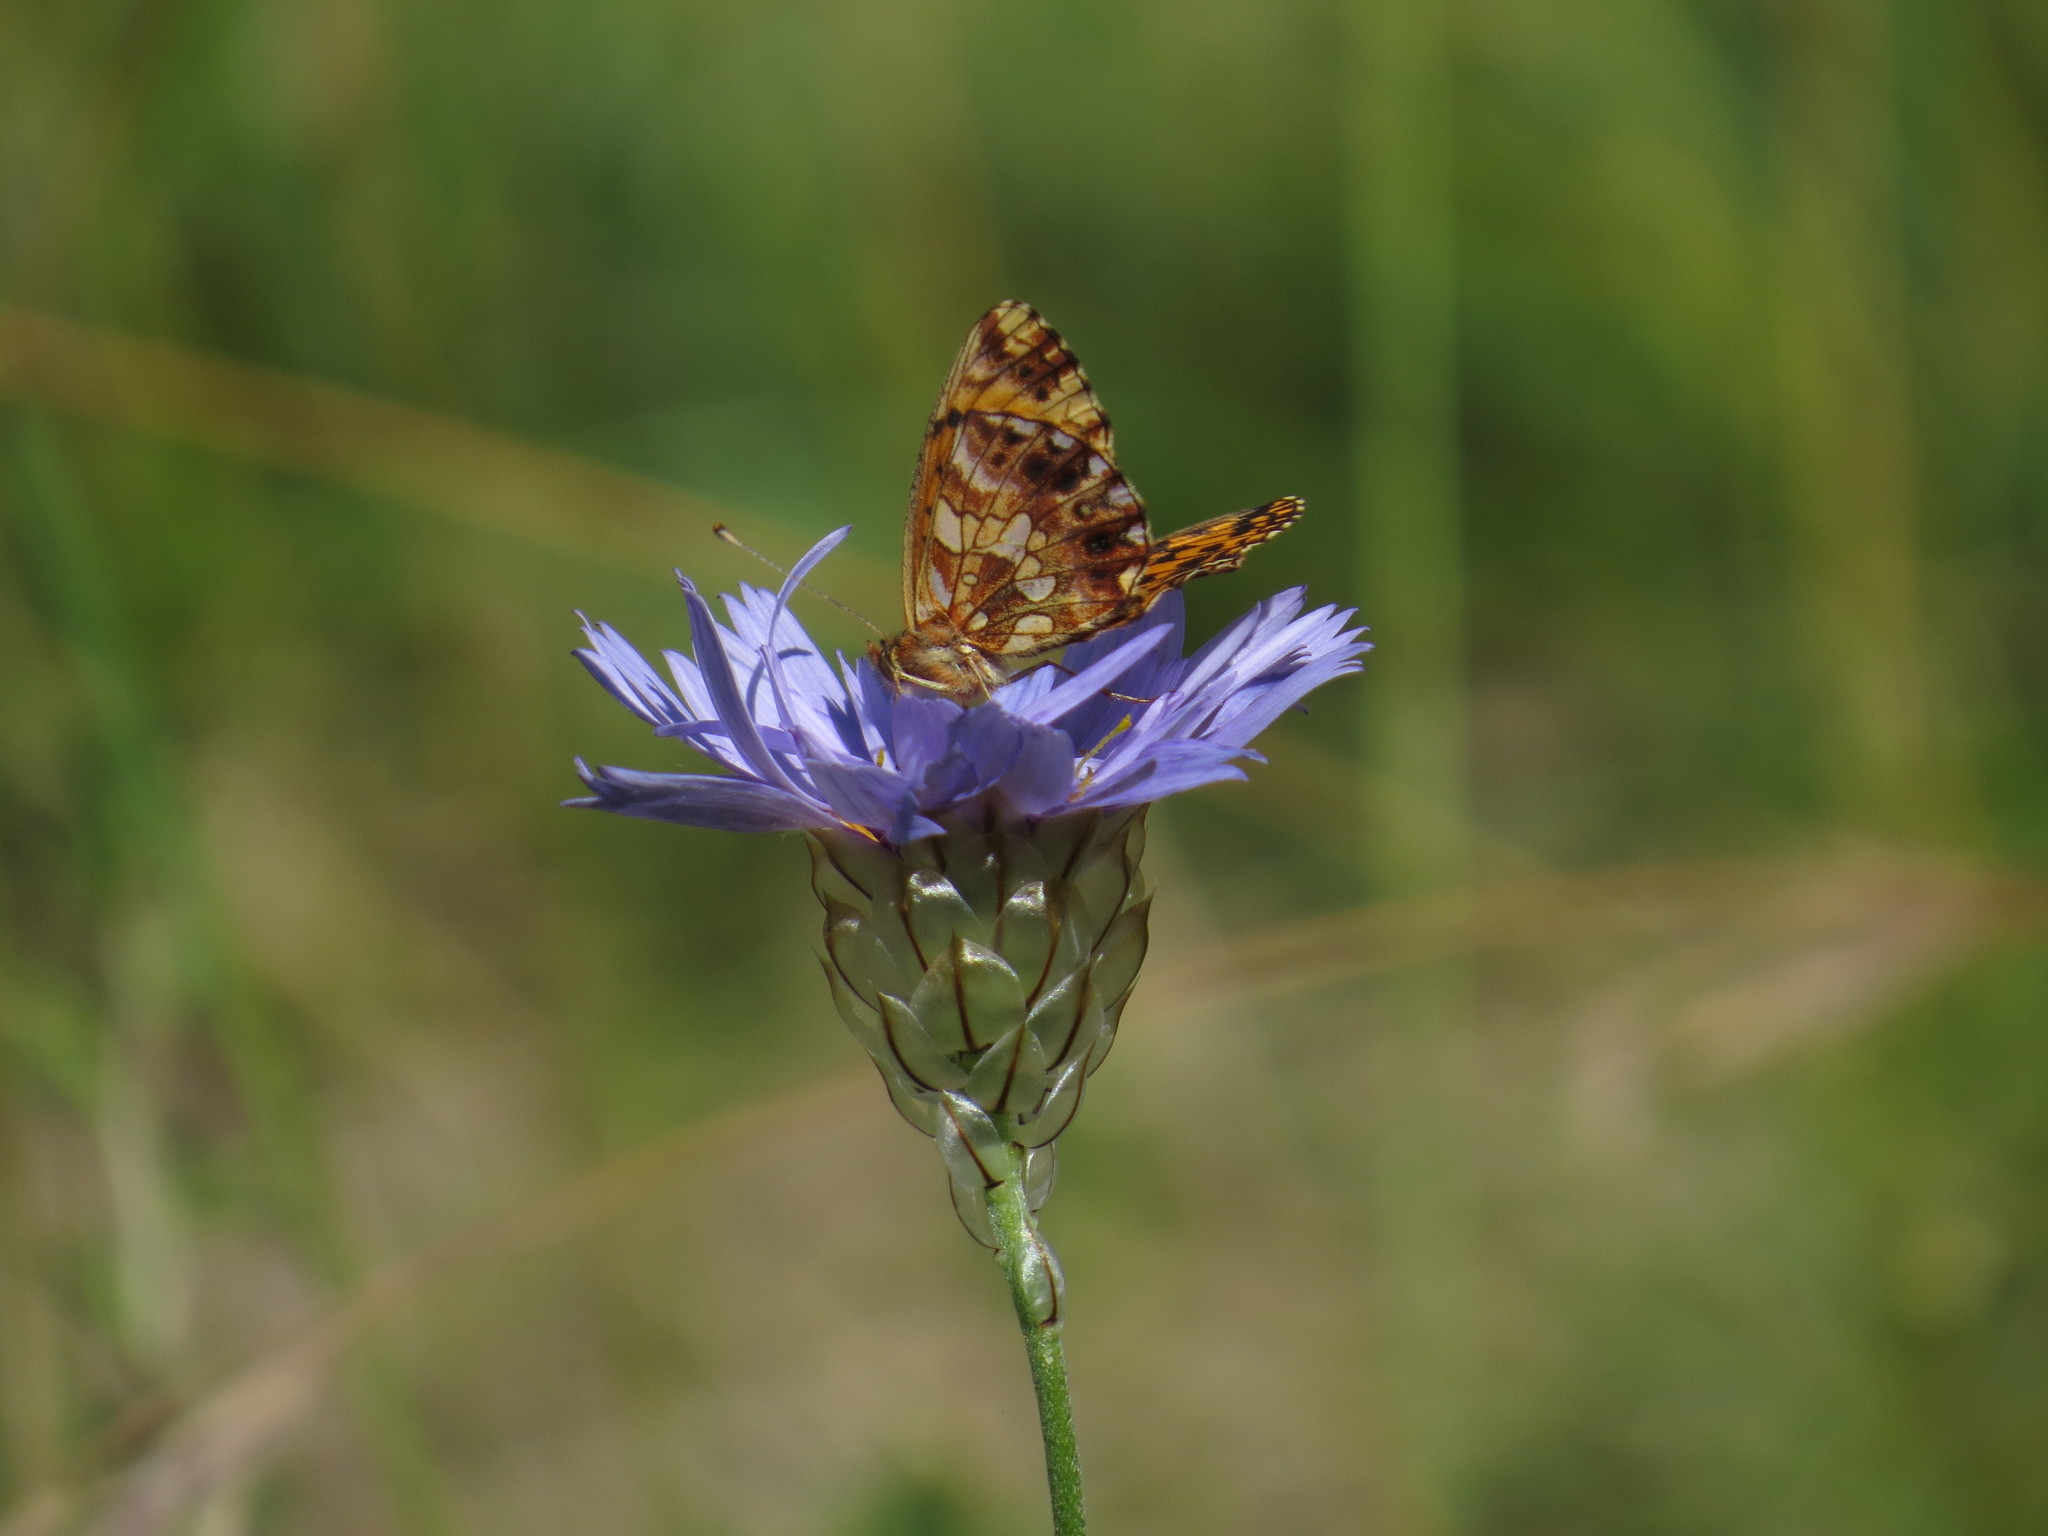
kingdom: Animalia
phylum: Arthropoda
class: Insecta
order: Lepidoptera
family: Nymphalidae
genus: Boloria
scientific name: Boloria dia
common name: Weaver's fritillary
